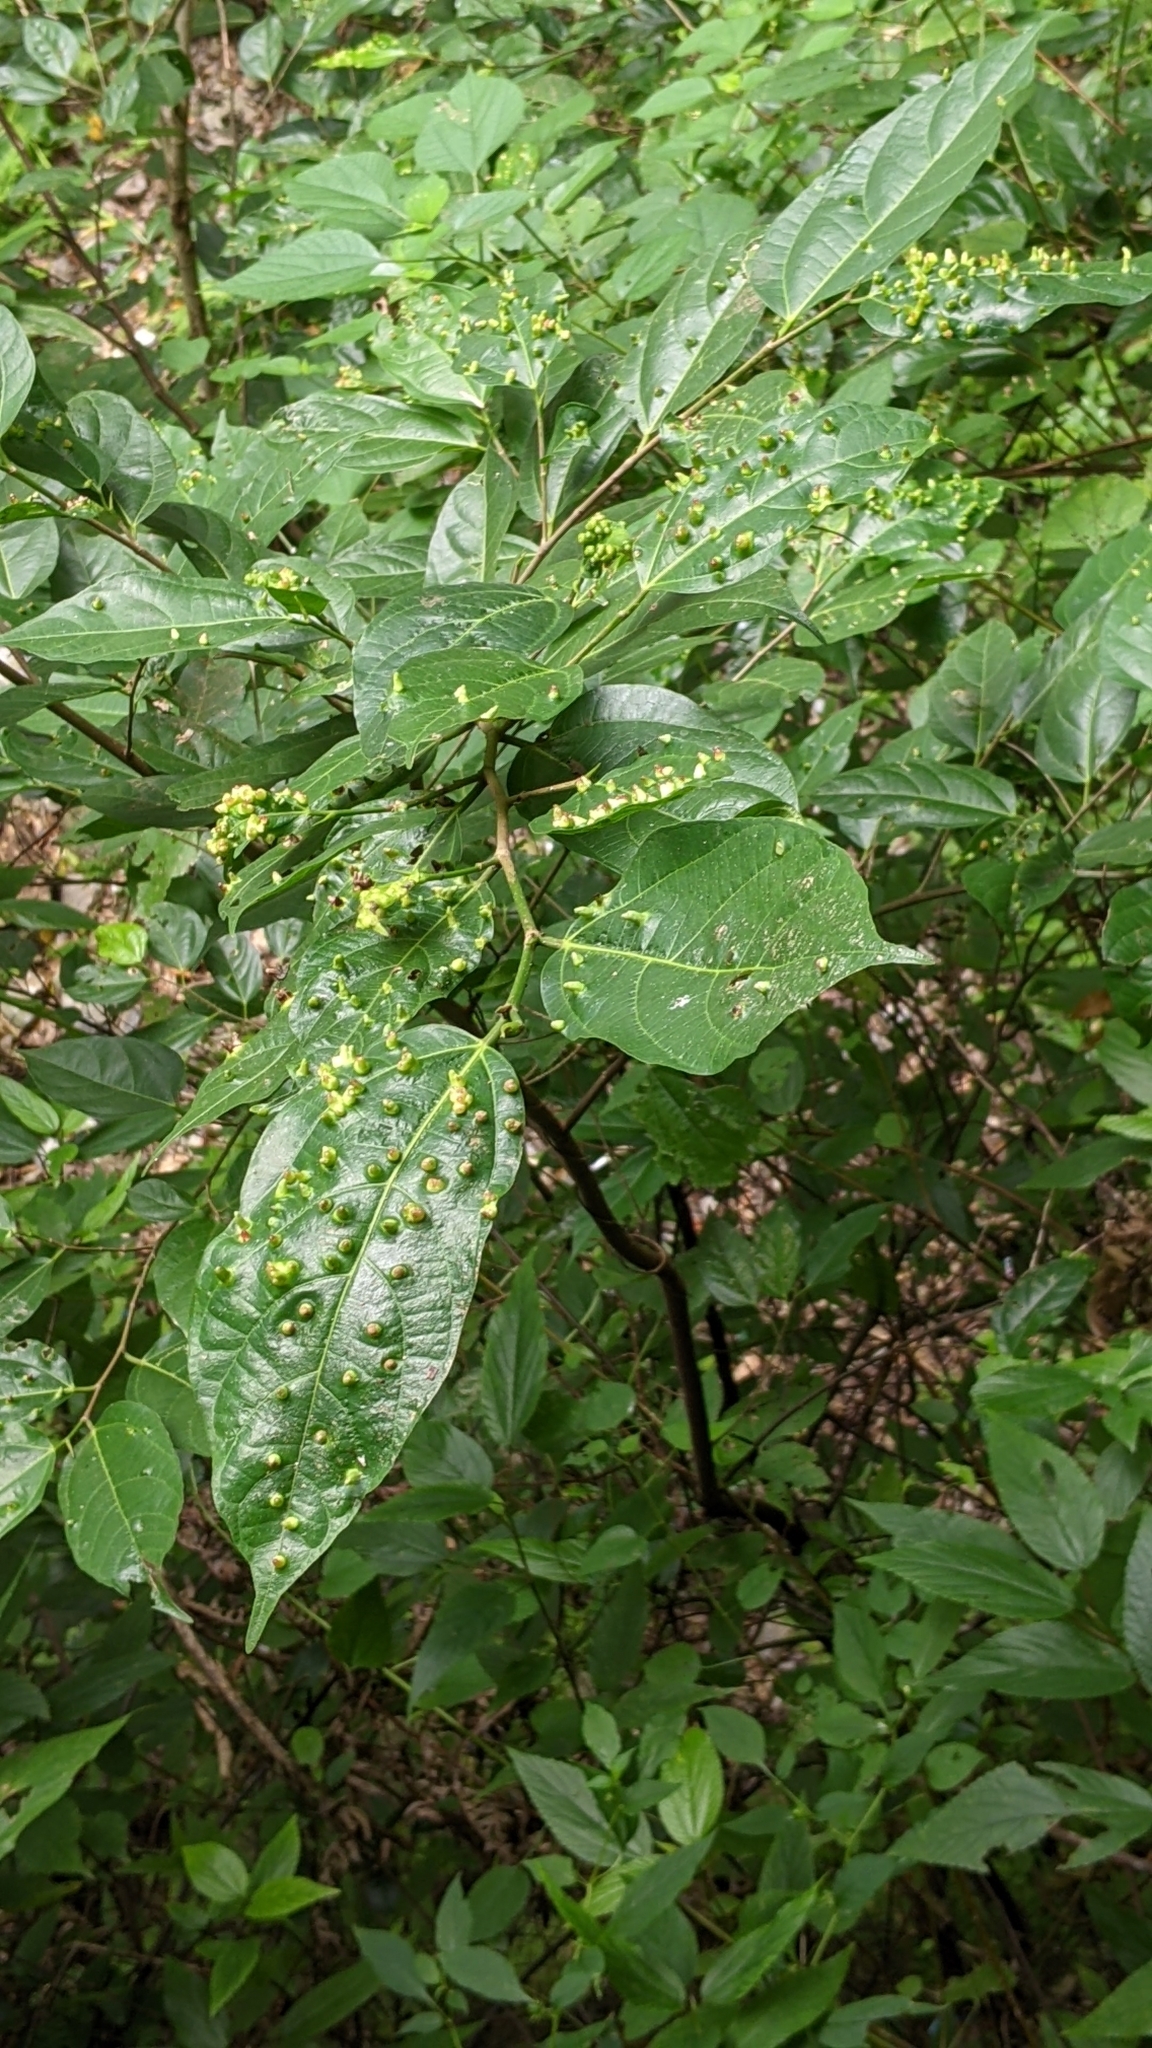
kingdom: Plantae
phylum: Tracheophyta
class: Magnoliopsida
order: Rosales
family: Moraceae
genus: Ficus
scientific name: Ficus ampelos
